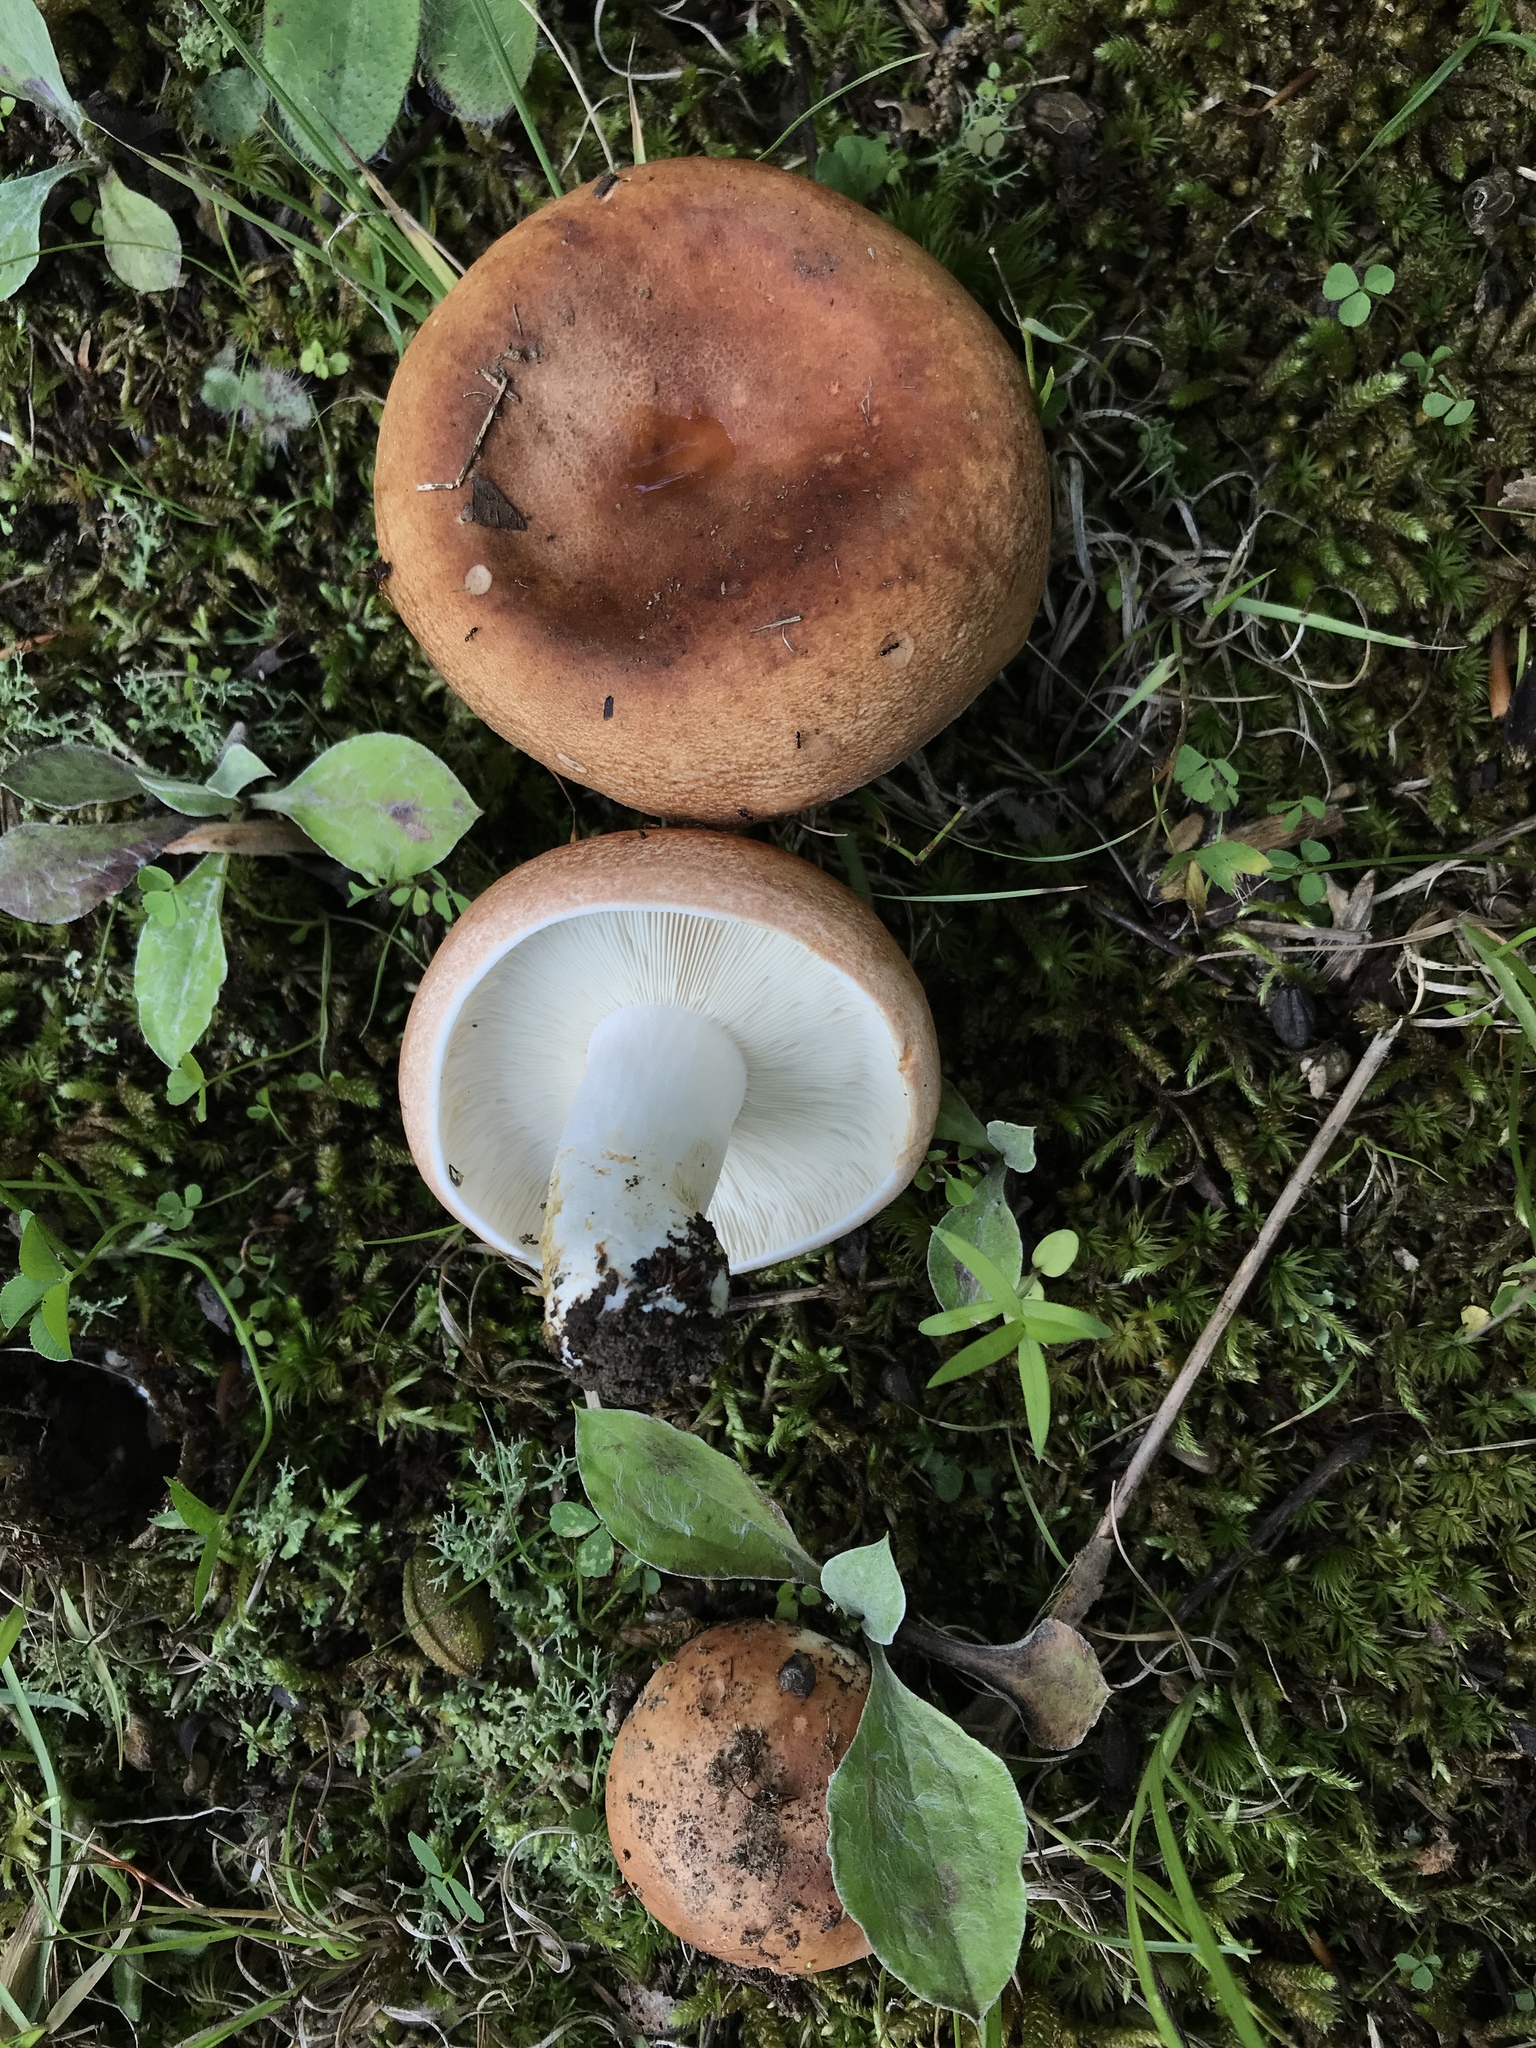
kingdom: Fungi
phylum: Basidiomycota
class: Agaricomycetes
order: Russulales
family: Russulaceae
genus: Russula
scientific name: Russula compacta
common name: Fishbiscuit russula
